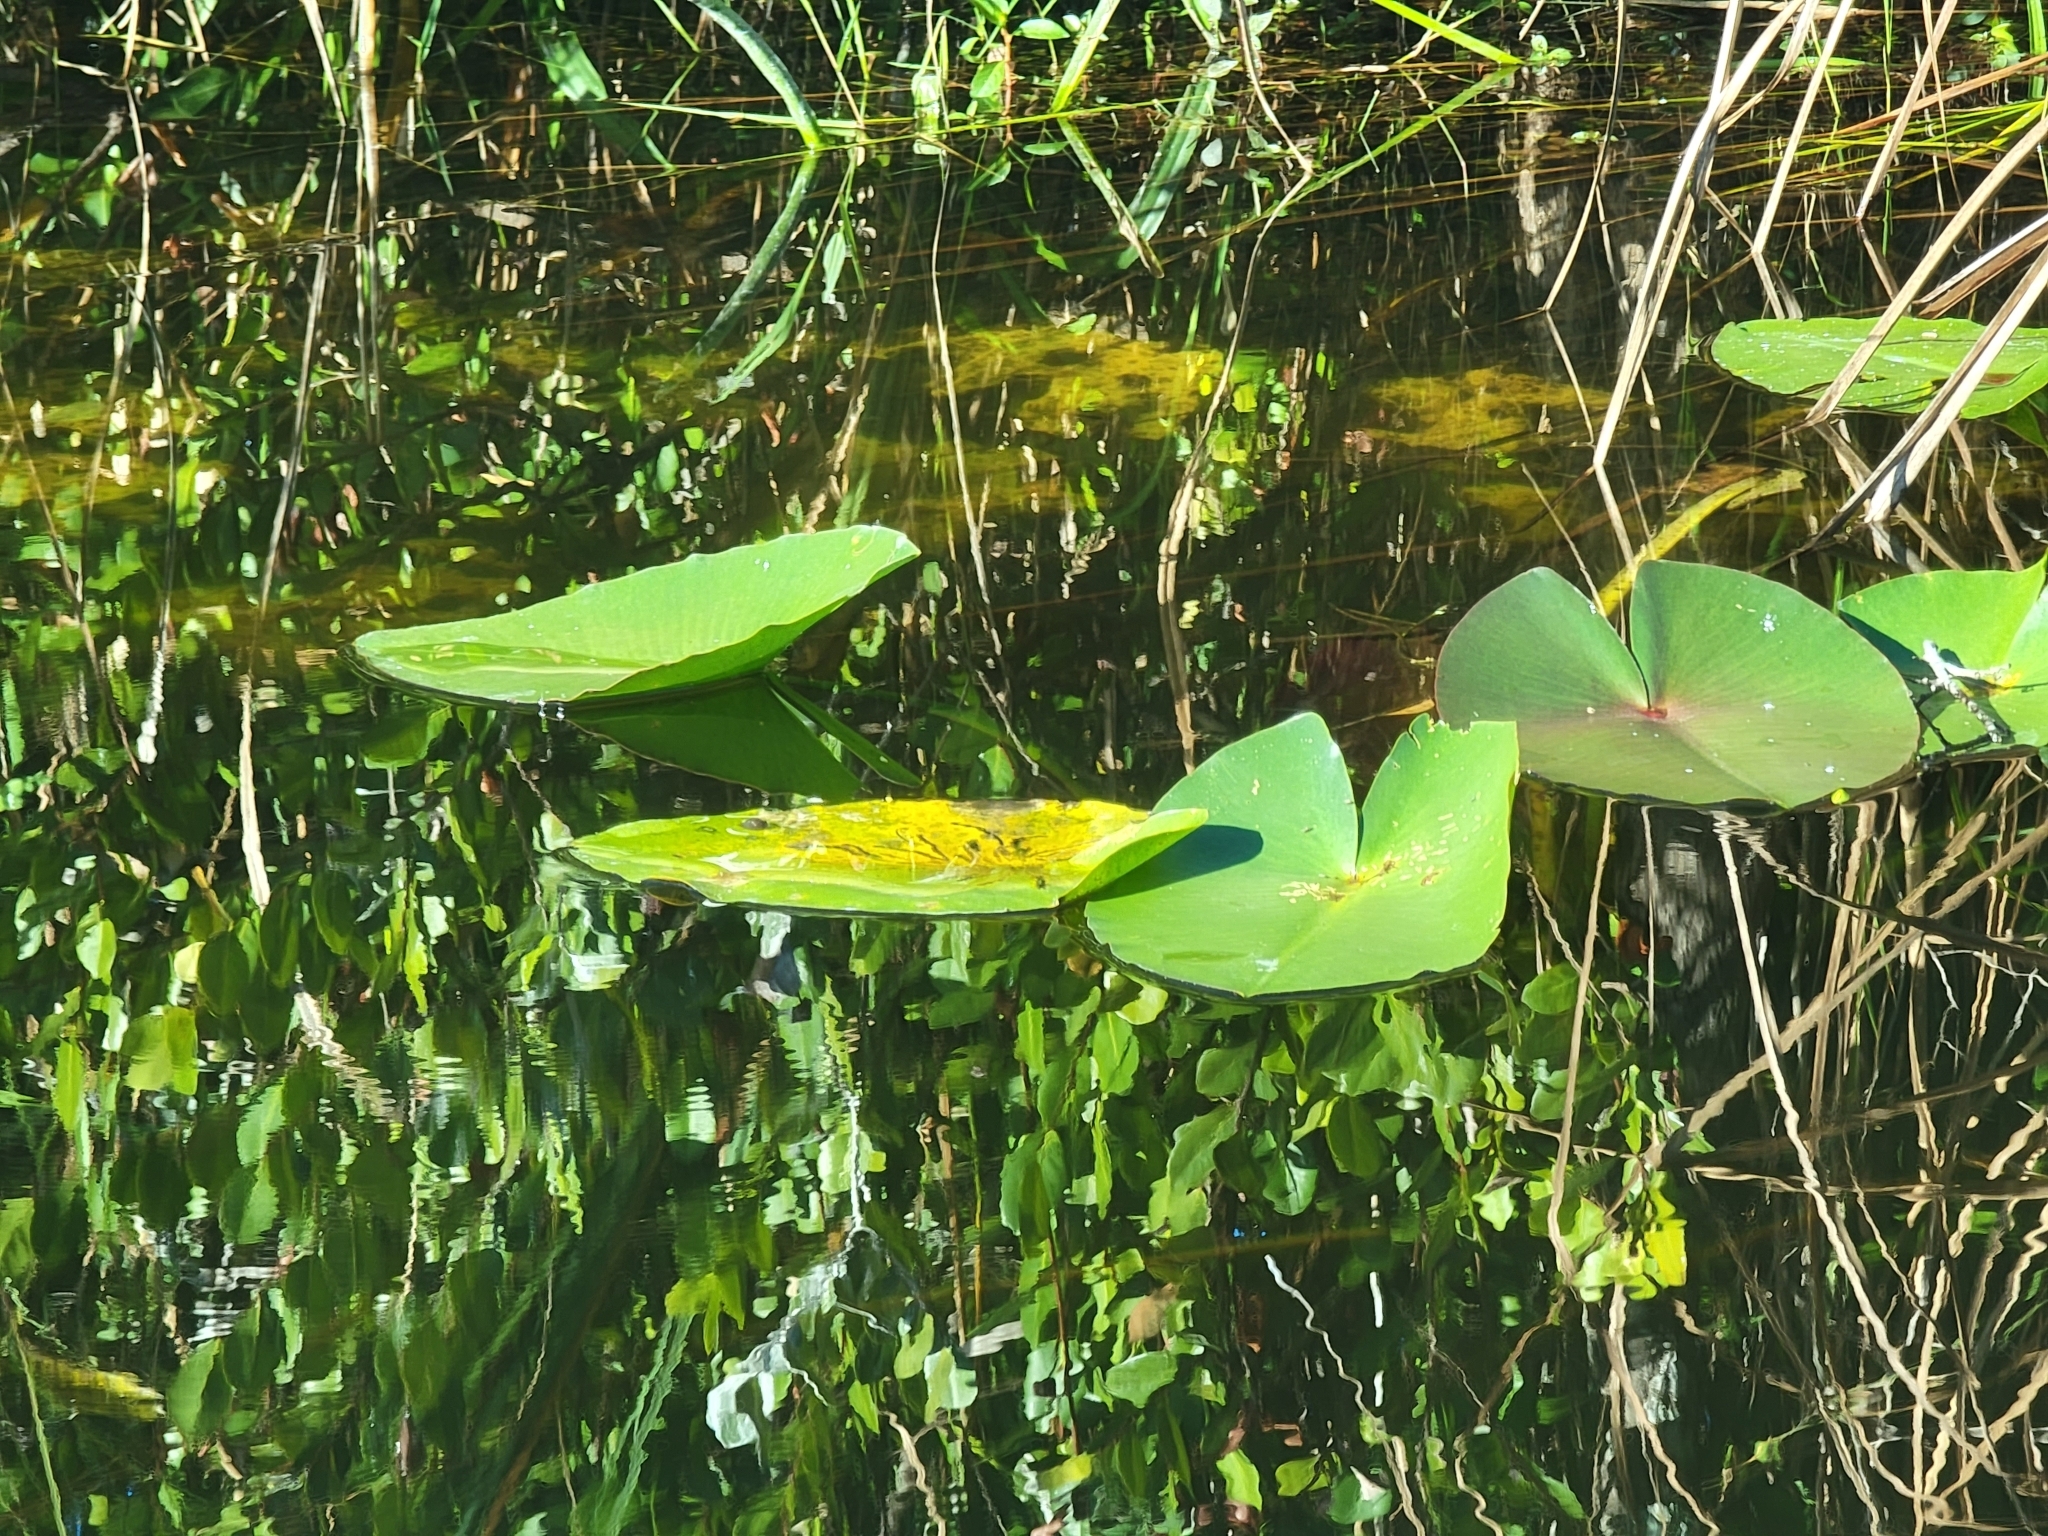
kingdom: Plantae
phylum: Tracheophyta
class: Magnoliopsida
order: Nymphaeales
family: Nymphaeaceae
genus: Nuphar
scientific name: Nuphar advena
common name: Spatter-dock
